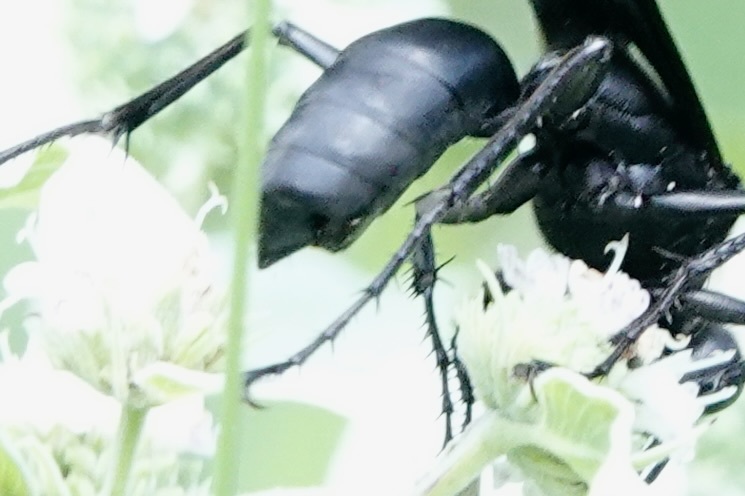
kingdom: Animalia
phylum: Arthropoda
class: Insecta
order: Strepsiptera
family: Xenidae
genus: Paraxenos
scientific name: Paraxenos Eupathocera westwoodii
